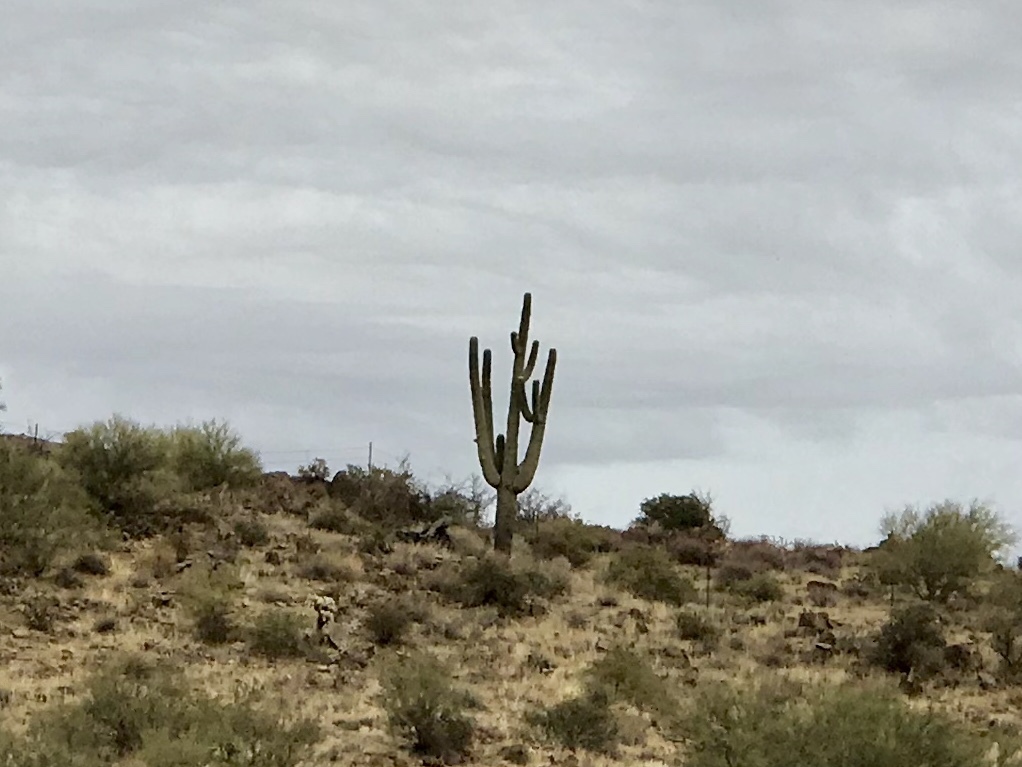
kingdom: Plantae
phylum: Tracheophyta
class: Magnoliopsida
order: Caryophyllales
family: Cactaceae
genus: Carnegiea
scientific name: Carnegiea gigantea
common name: Saguaro
